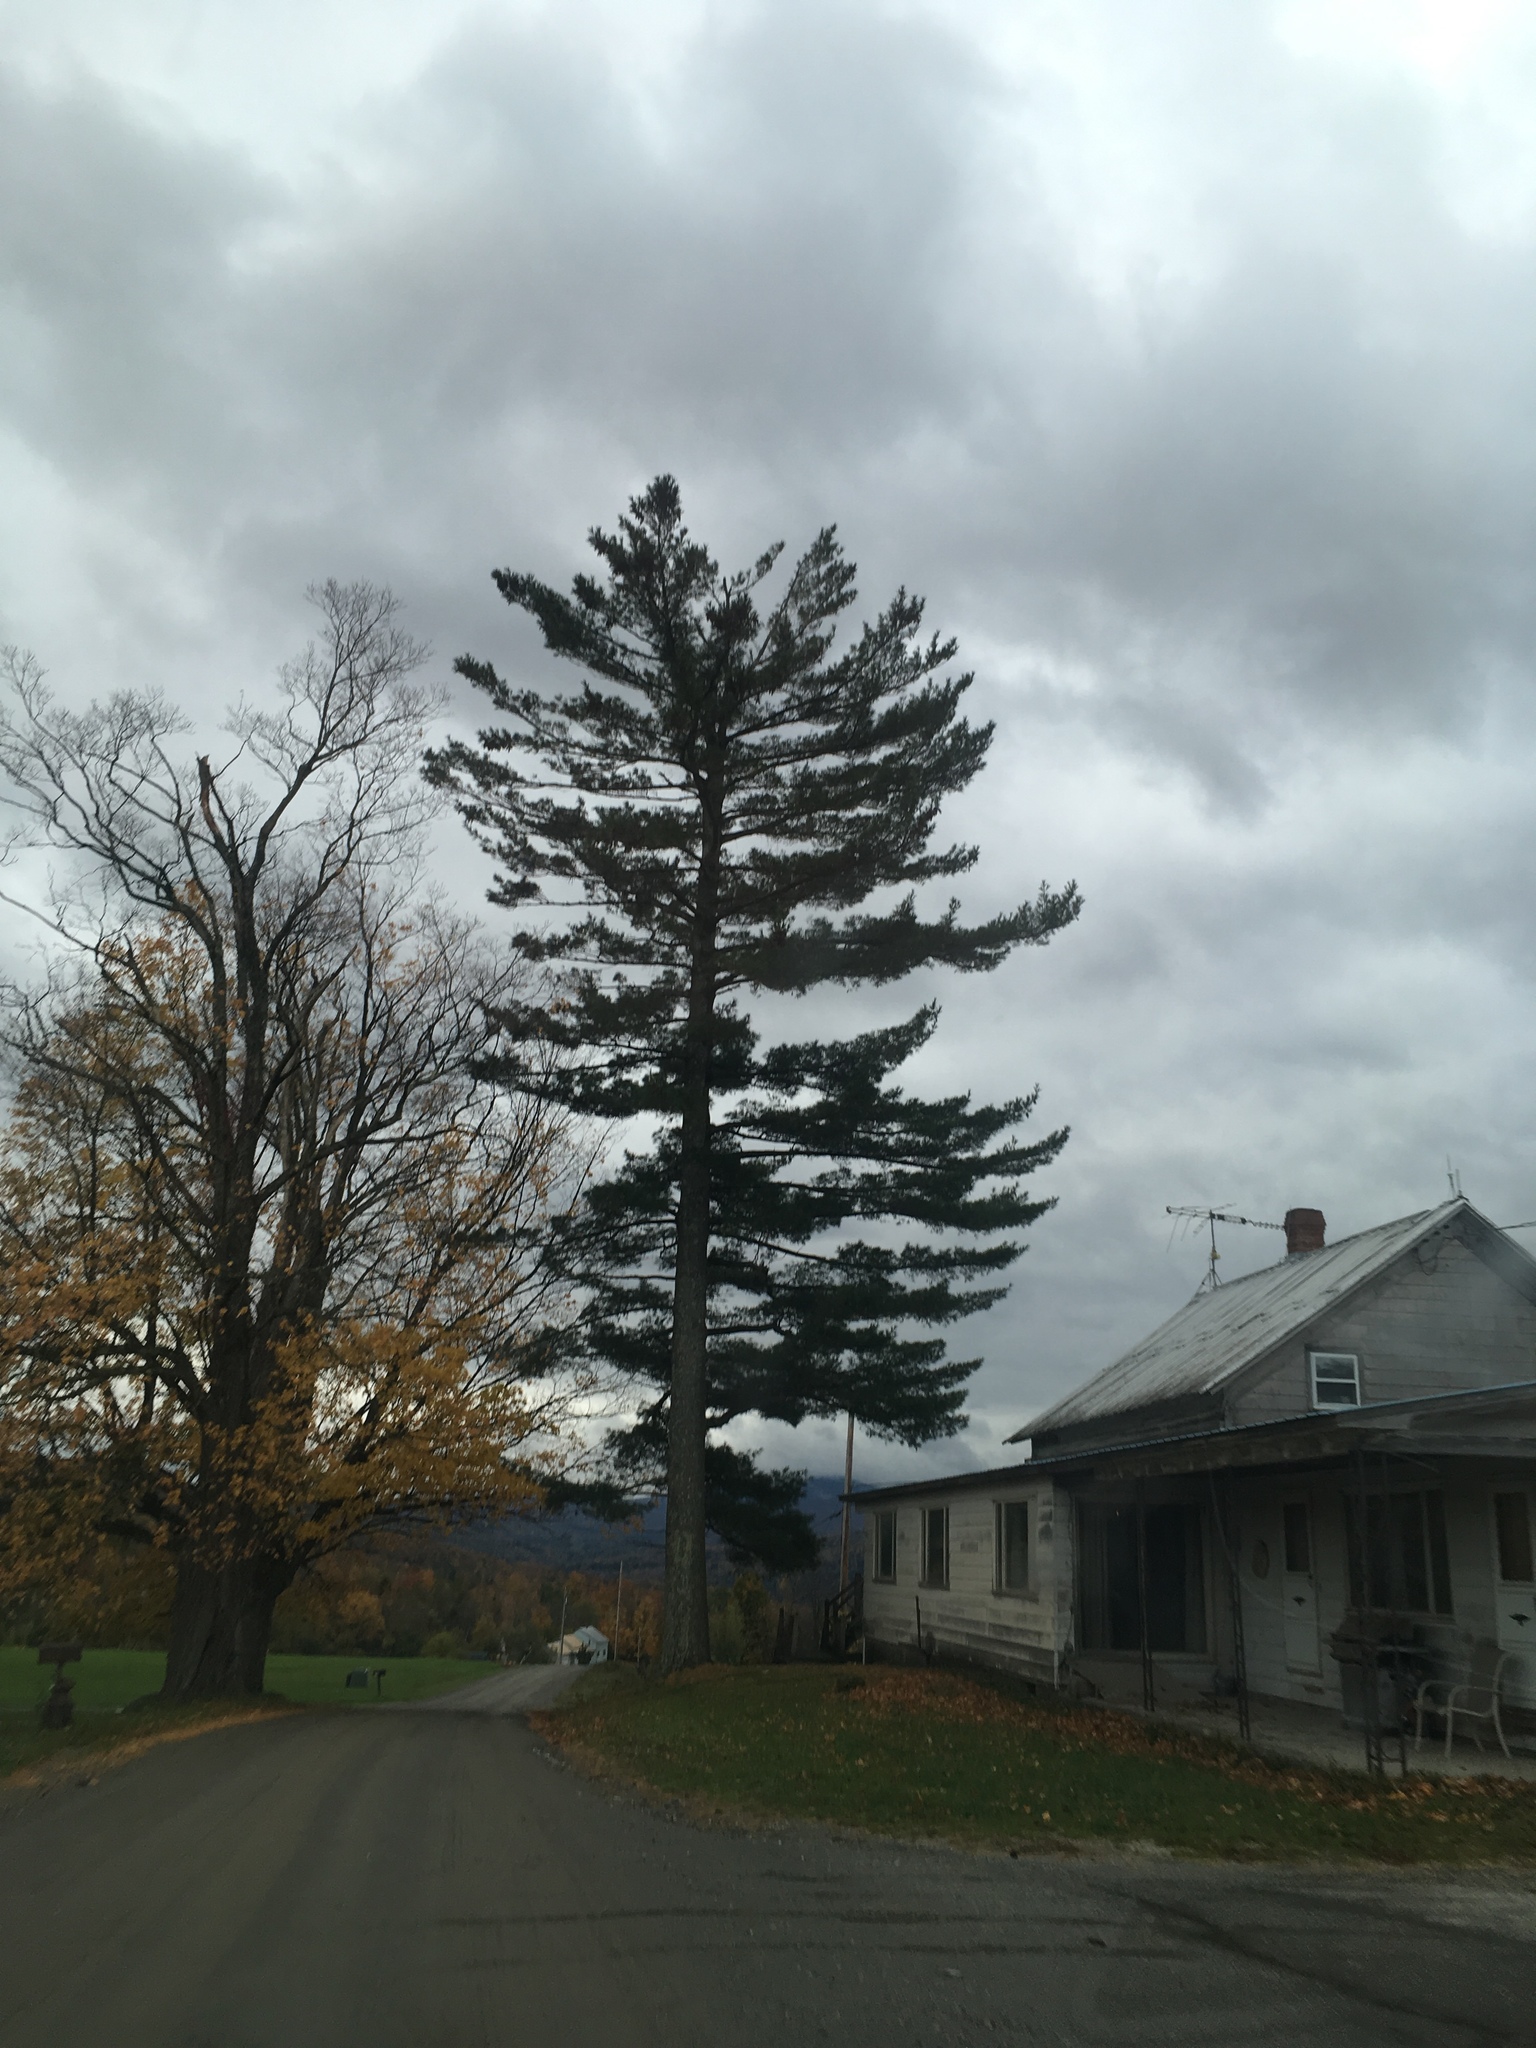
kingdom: Plantae
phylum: Tracheophyta
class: Pinopsida
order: Pinales
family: Pinaceae
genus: Pinus
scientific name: Pinus strobus
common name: Weymouth pine
